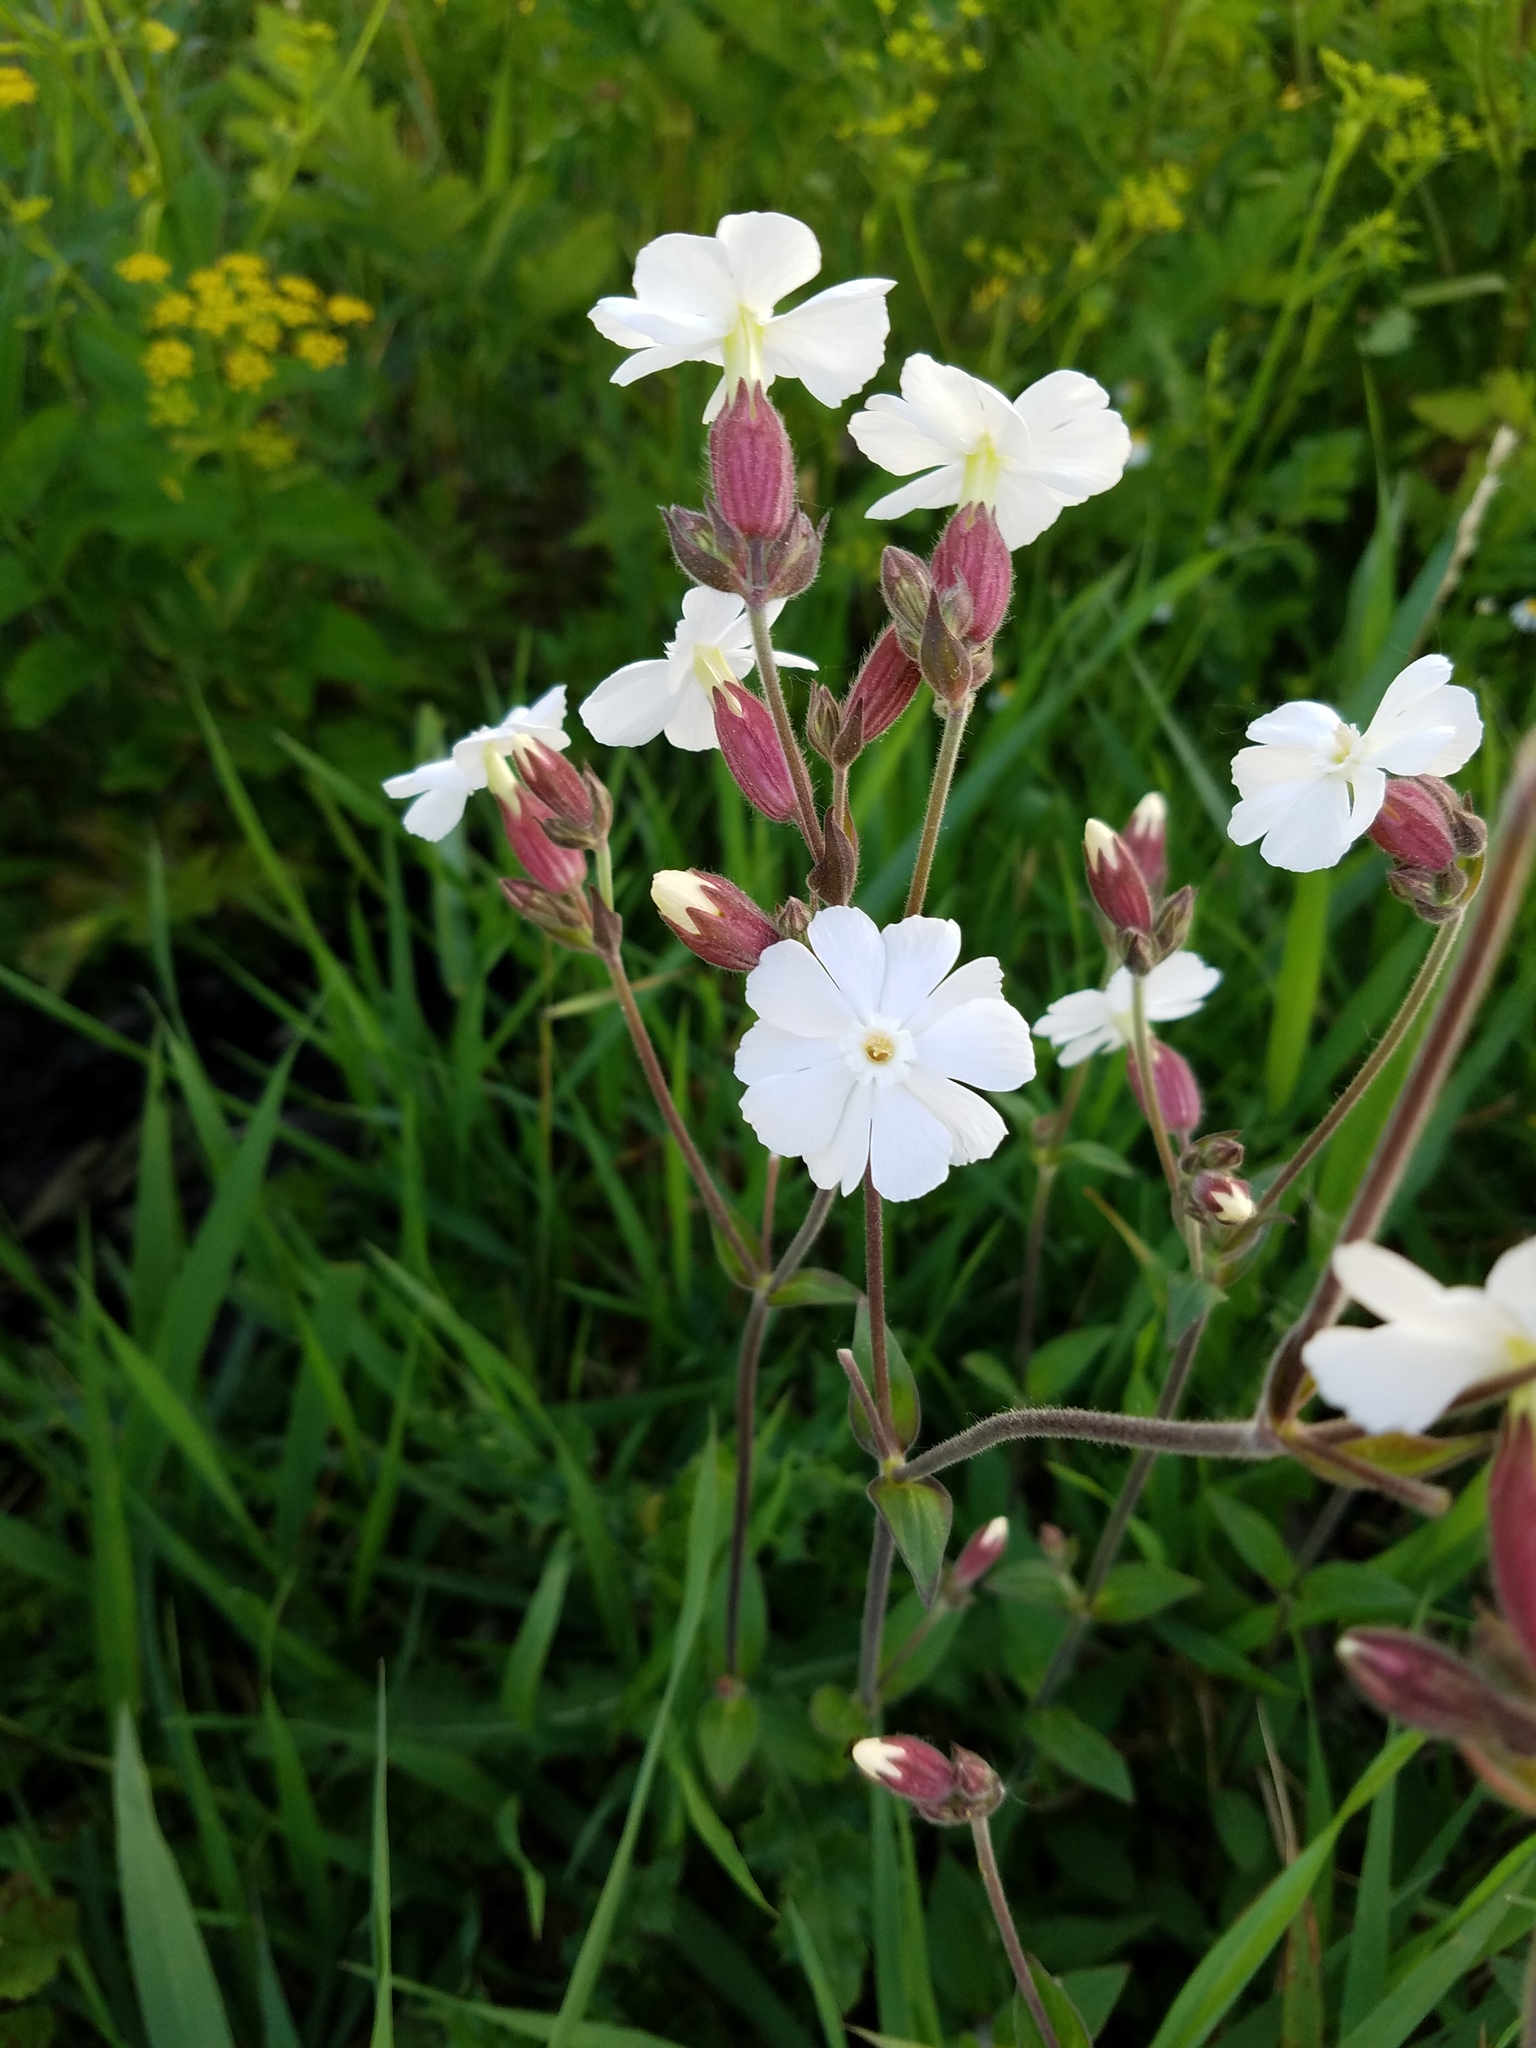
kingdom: Plantae
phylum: Tracheophyta
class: Magnoliopsida
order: Caryophyllales
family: Caryophyllaceae
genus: Silene
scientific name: Silene latifolia
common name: White campion
